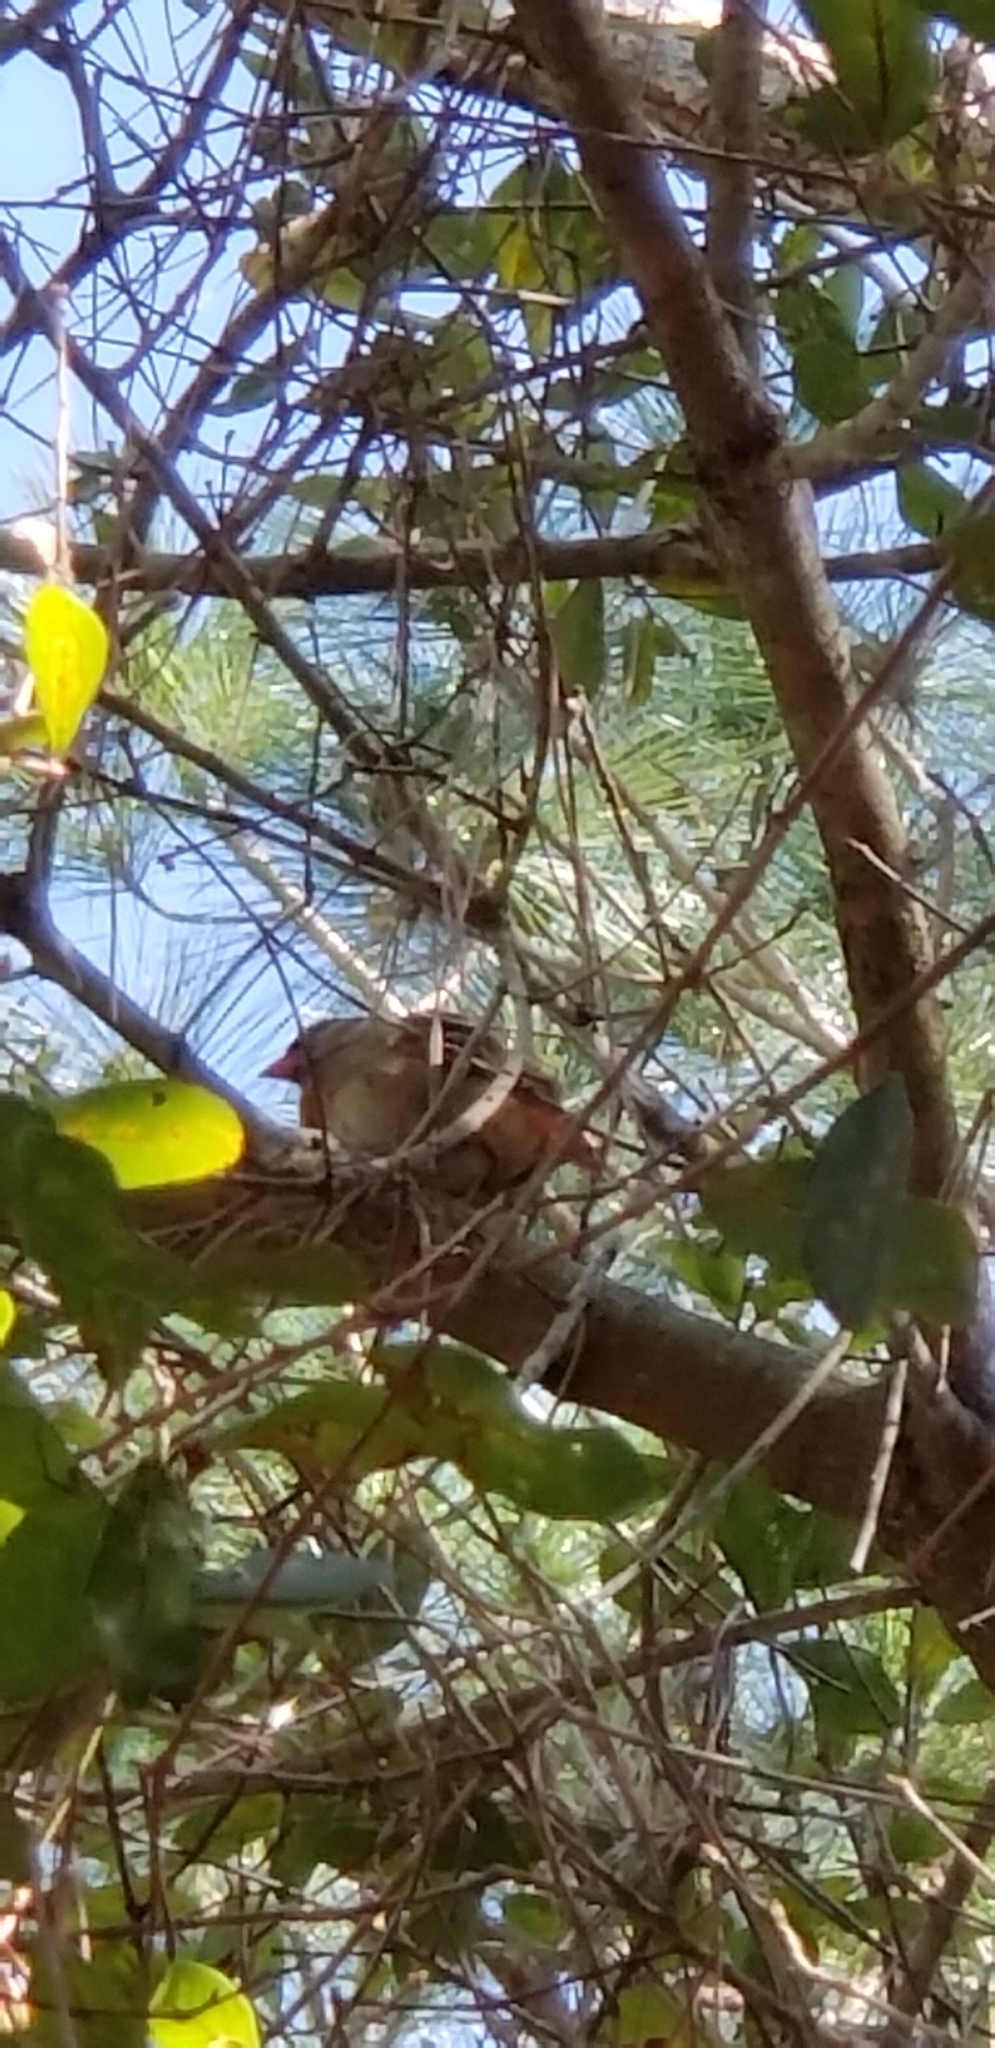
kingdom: Animalia
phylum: Chordata
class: Aves
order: Passeriformes
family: Cardinalidae
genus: Cardinalis
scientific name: Cardinalis cardinalis
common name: Northern cardinal
